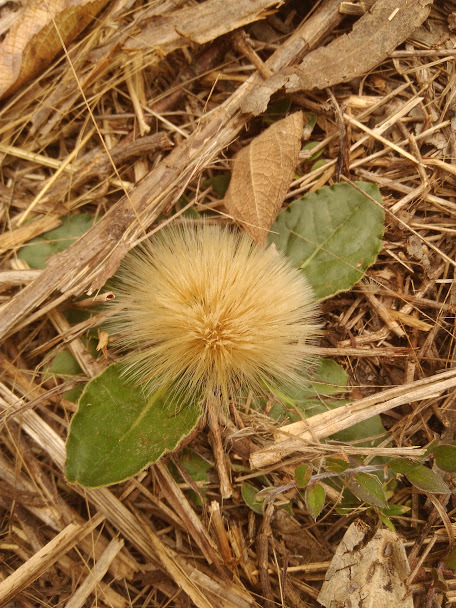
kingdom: Plantae
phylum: Tracheophyta
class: Magnoliopsida
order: Asterales
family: Asteraceae
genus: Chaptalia
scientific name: Chaptalia exscapa
